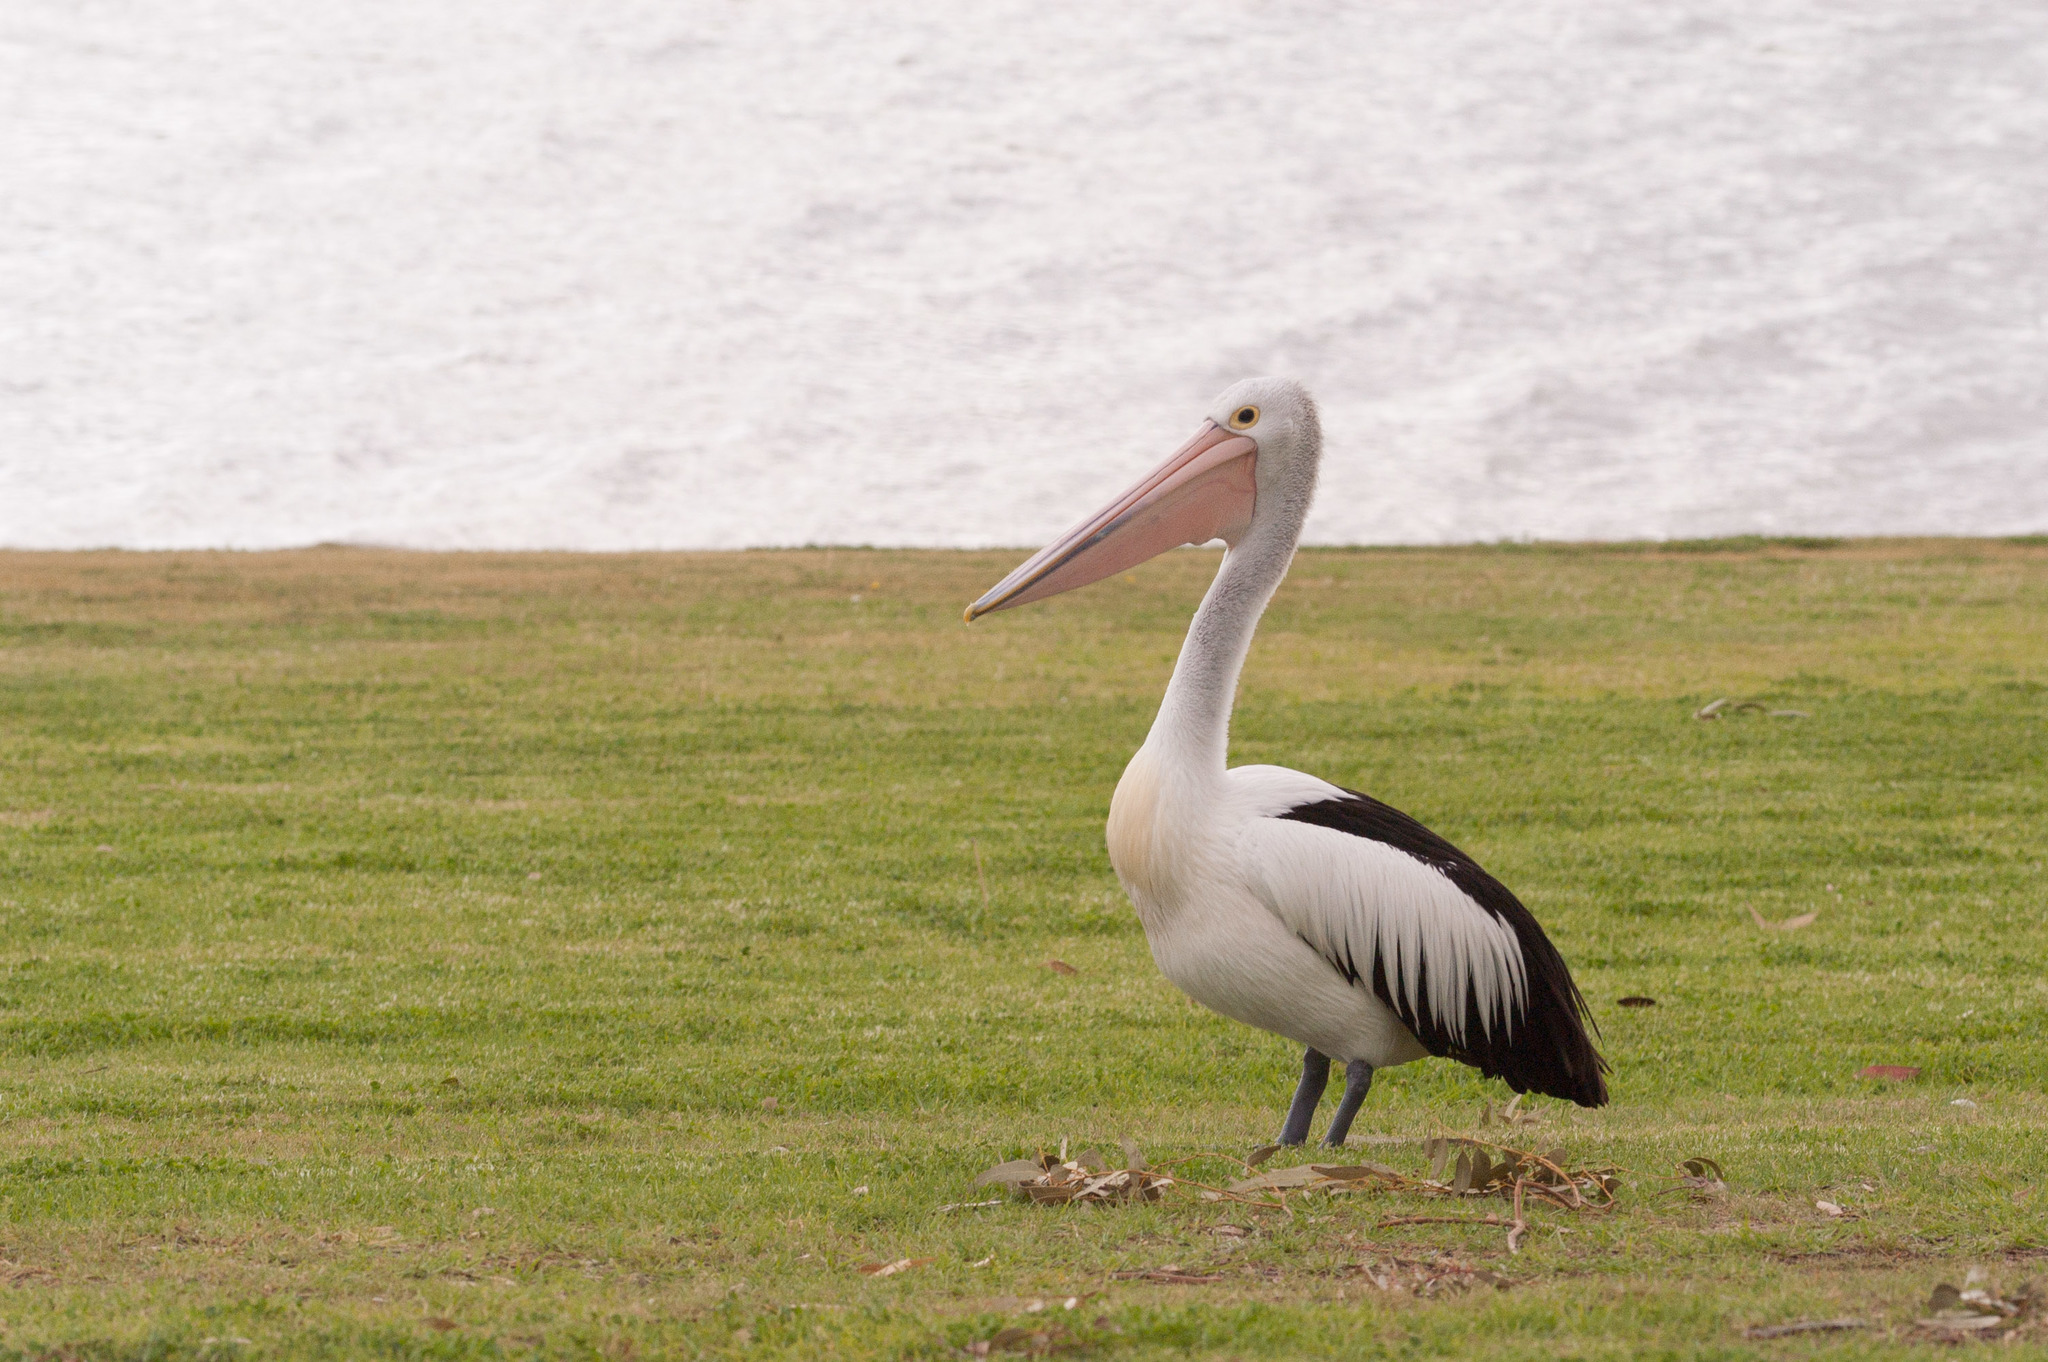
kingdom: Animalia
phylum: Chordata
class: Aves
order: Pelecaniformes
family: Pelecanidae
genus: Pelecanus
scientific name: Pelecanus conspicillatus
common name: Australian pelican
